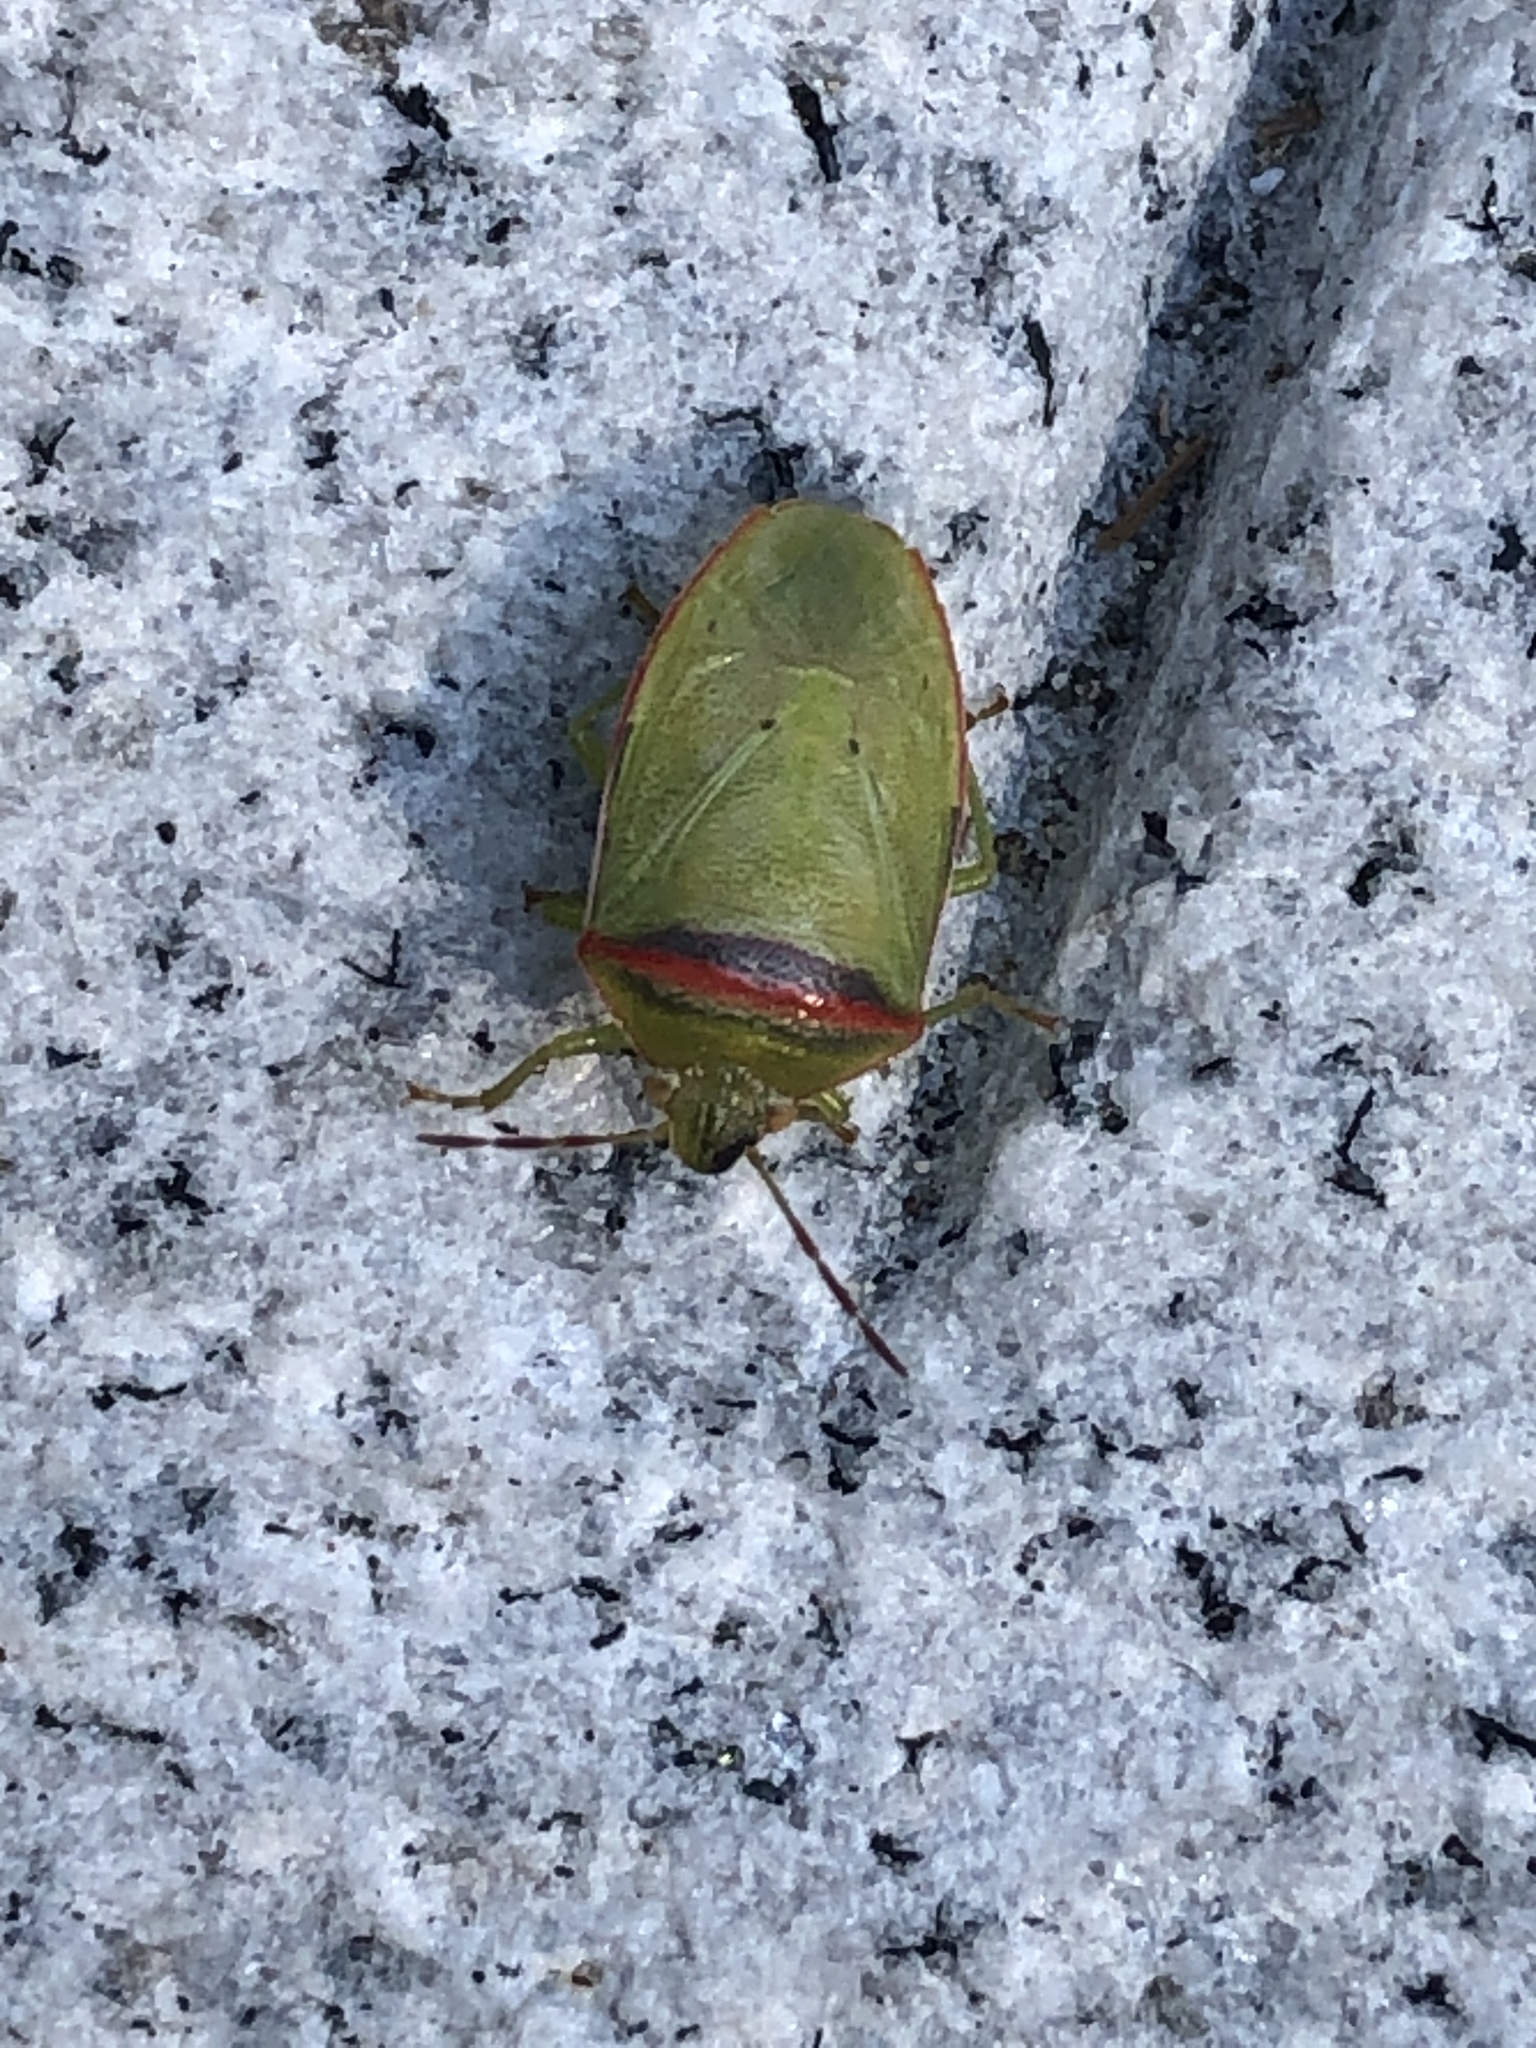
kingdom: Animalia
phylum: Arthropoda
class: Insecta
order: Hemiptera
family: Pentatomidae
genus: Piezodorus
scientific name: Piezodorus hybneri
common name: Stink bug
